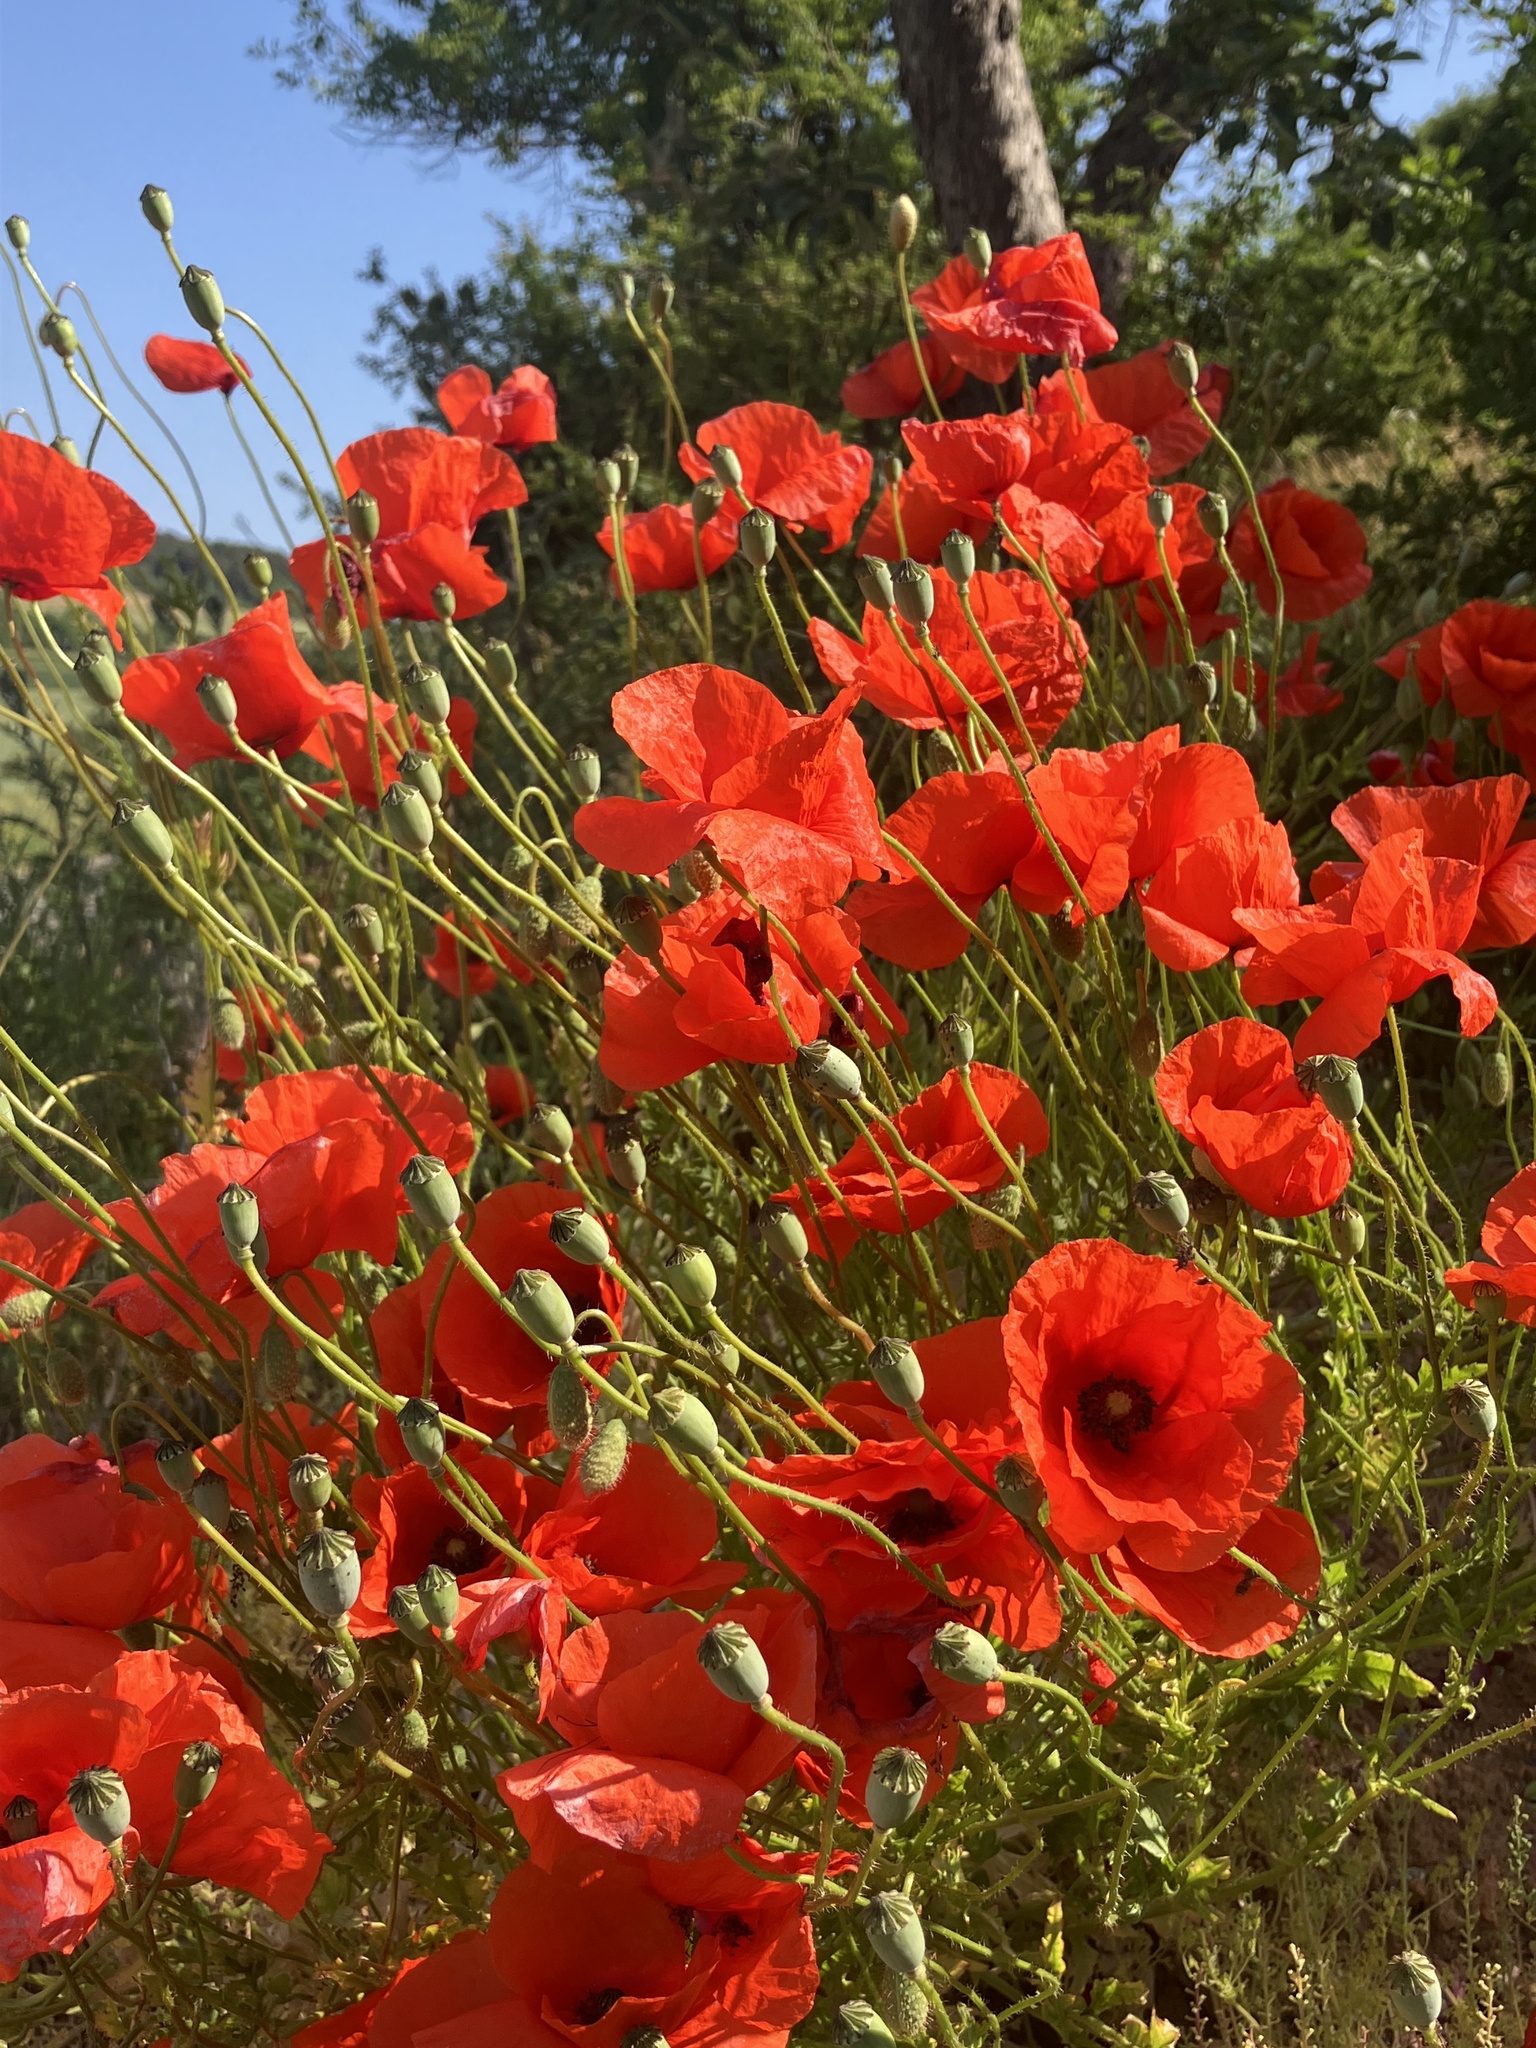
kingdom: Plantae
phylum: Tracheophyta
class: Magnoliopsida
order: Ranunculales
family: Papaveraceae
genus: Papaver
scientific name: Papaver rhoeas
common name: Corn poppy
